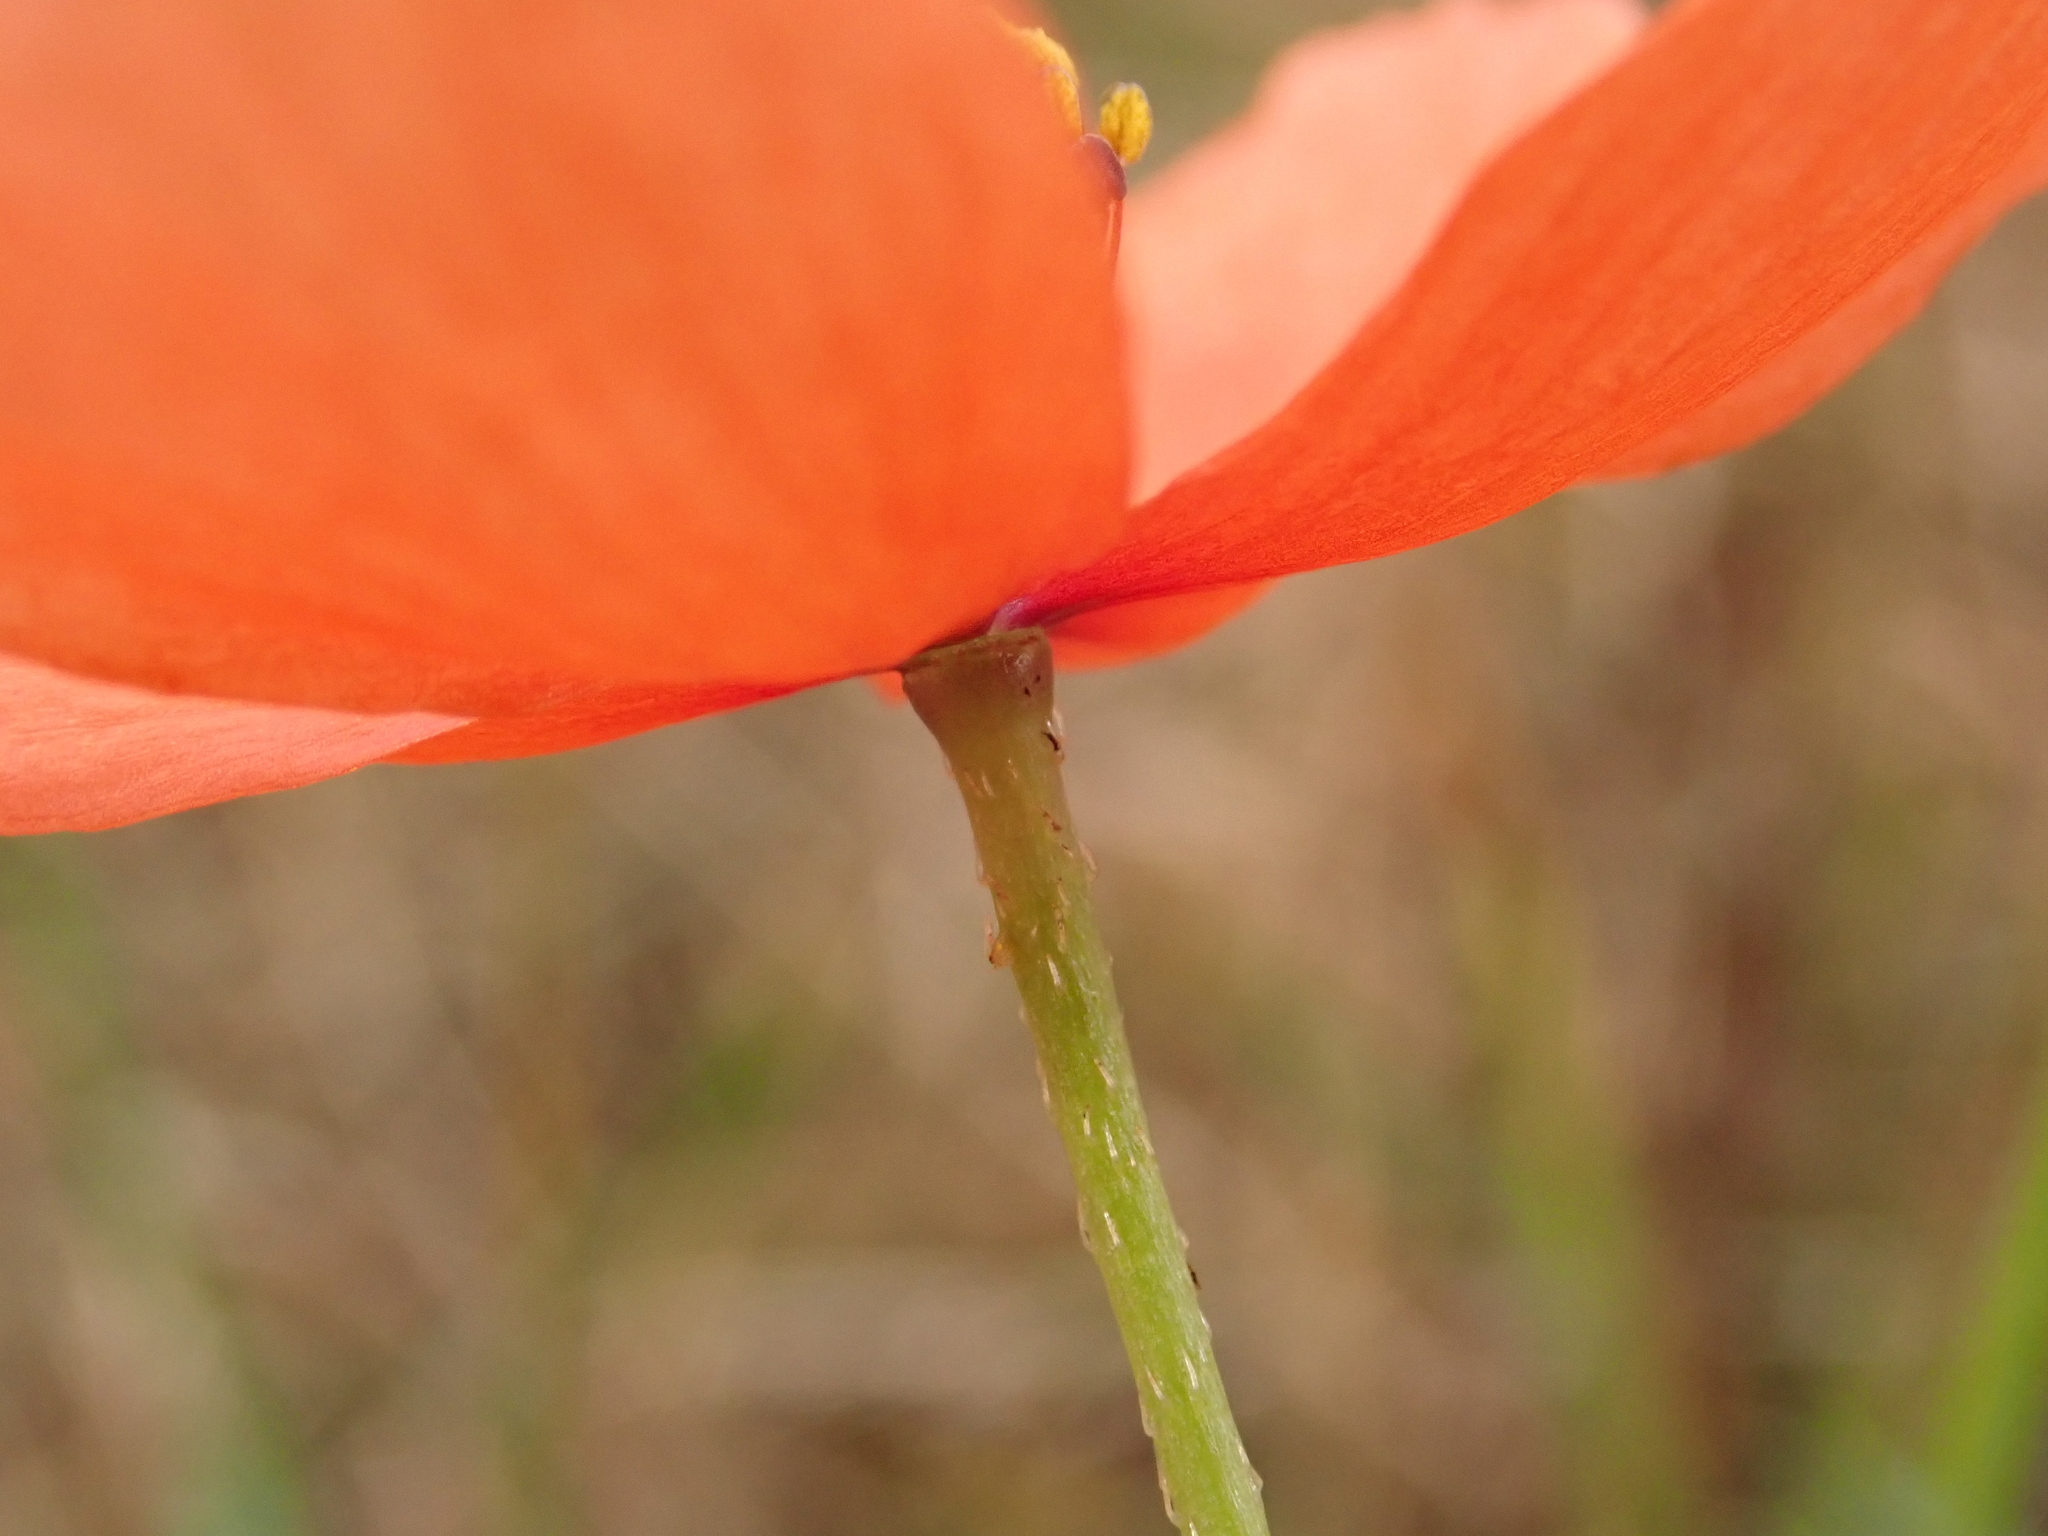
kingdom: Plantae
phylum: Tracheophyta
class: Magnoliopsida
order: Ranunculales
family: Papaveraceae
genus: Papaver
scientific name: Papaver dubium
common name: Long-headed poppy
